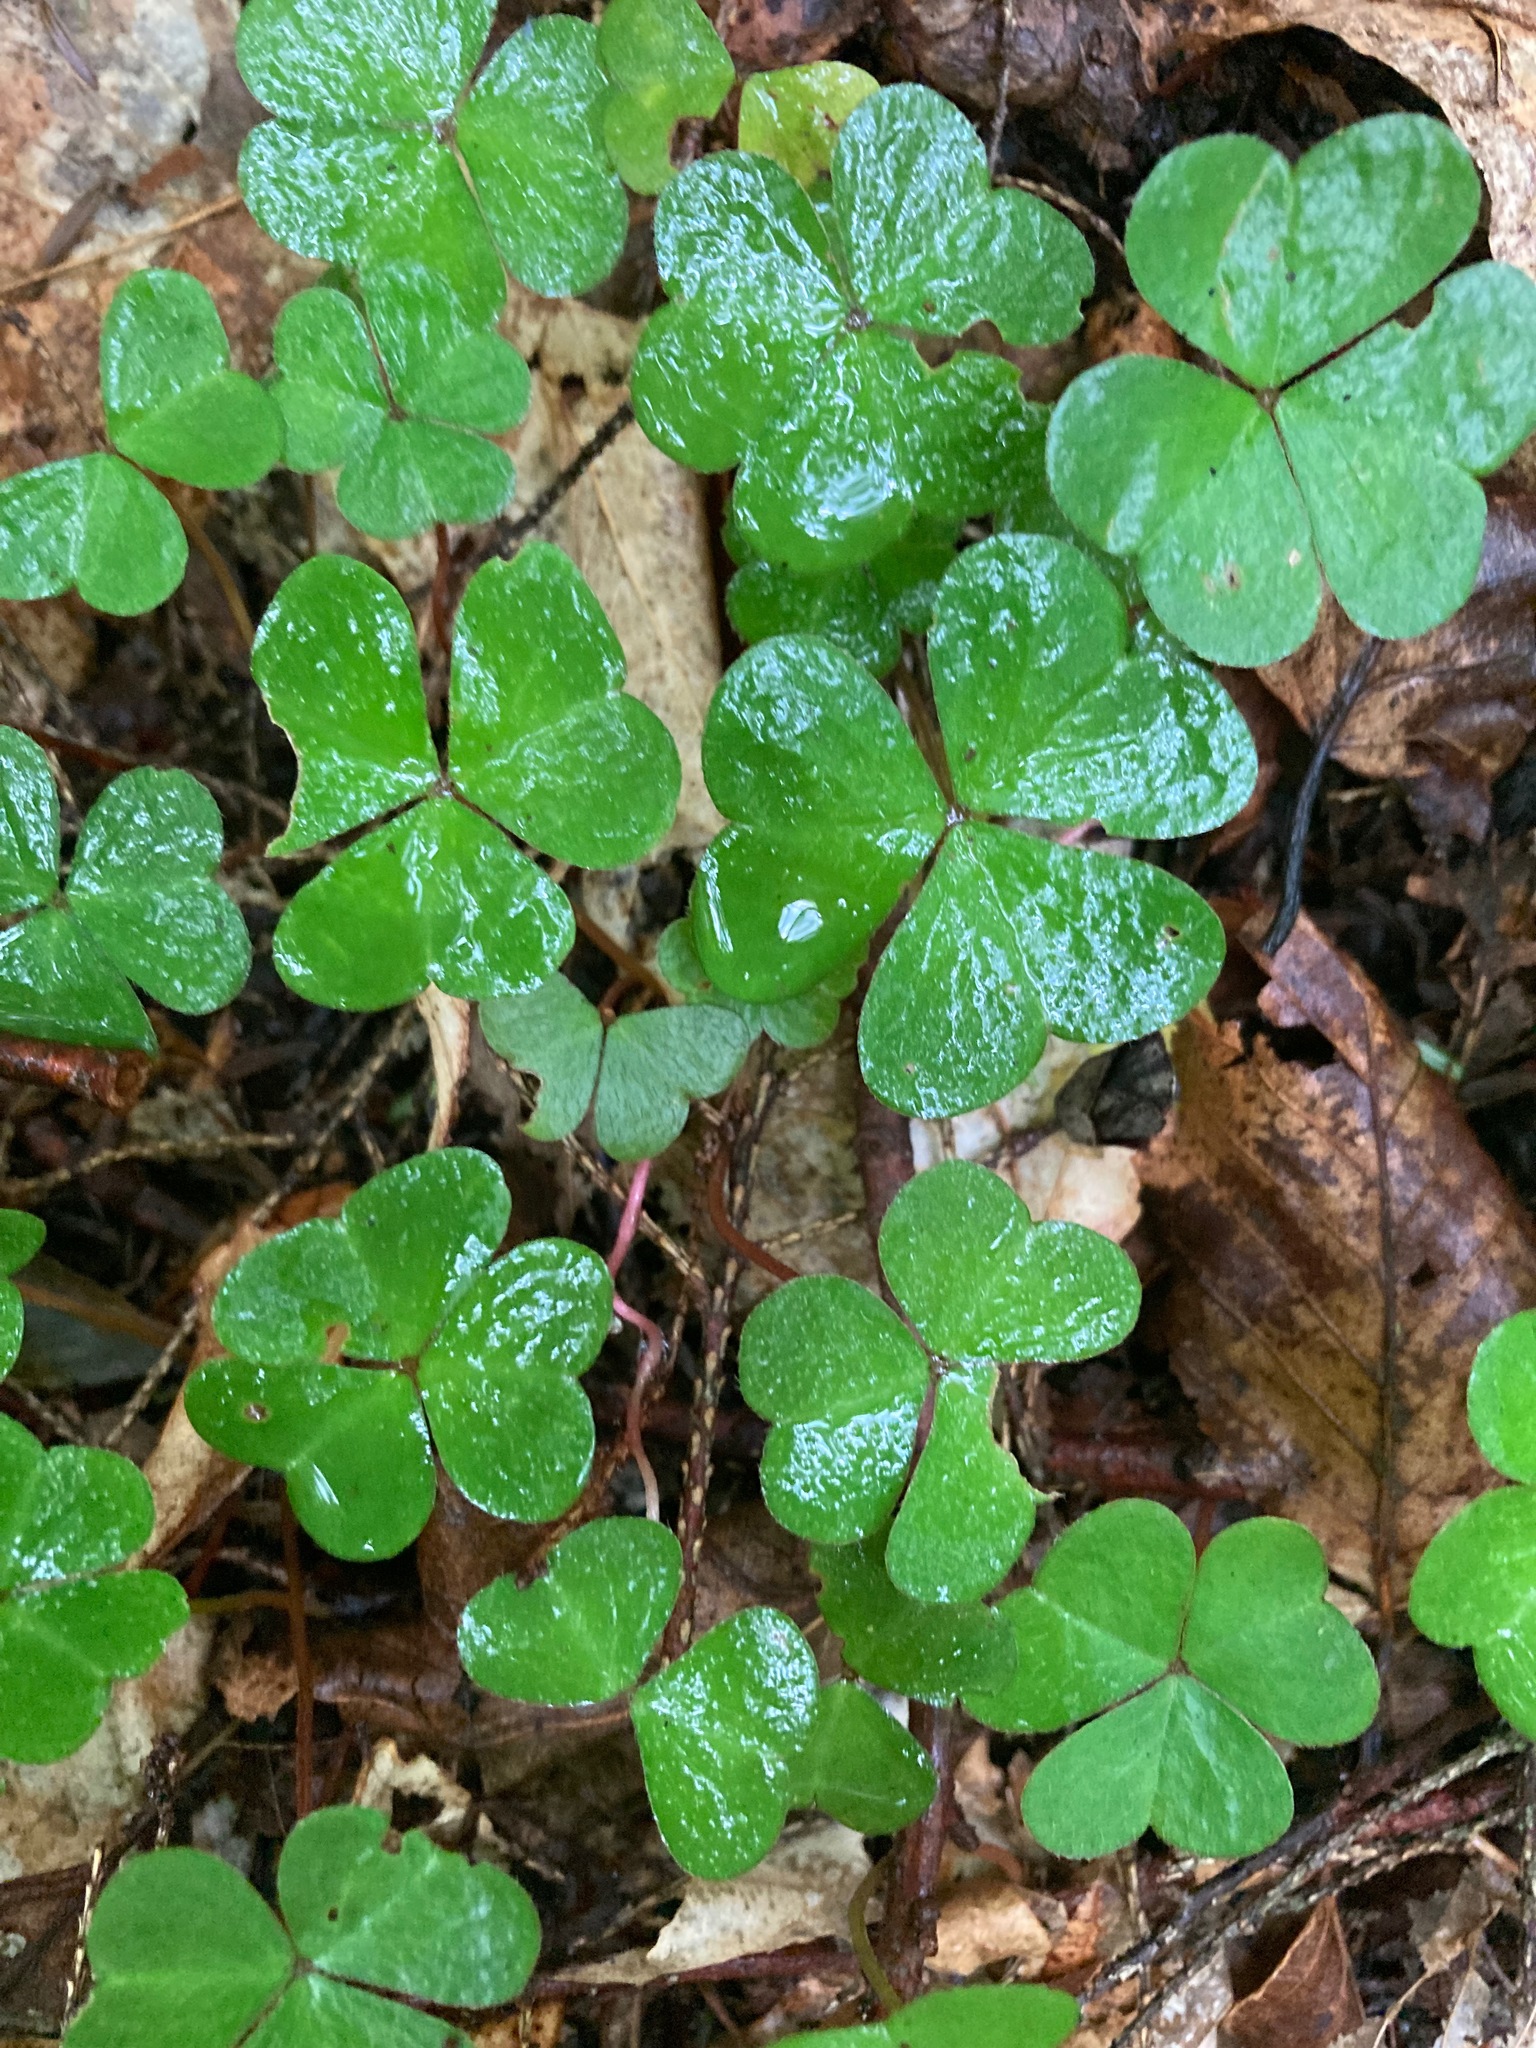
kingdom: Plantae
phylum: Tracheophyta
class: Magnoliopsida
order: Oxalidales
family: Oxalidaceae
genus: Oxalis
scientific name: Oxalis montana
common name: American wood-sorrel
